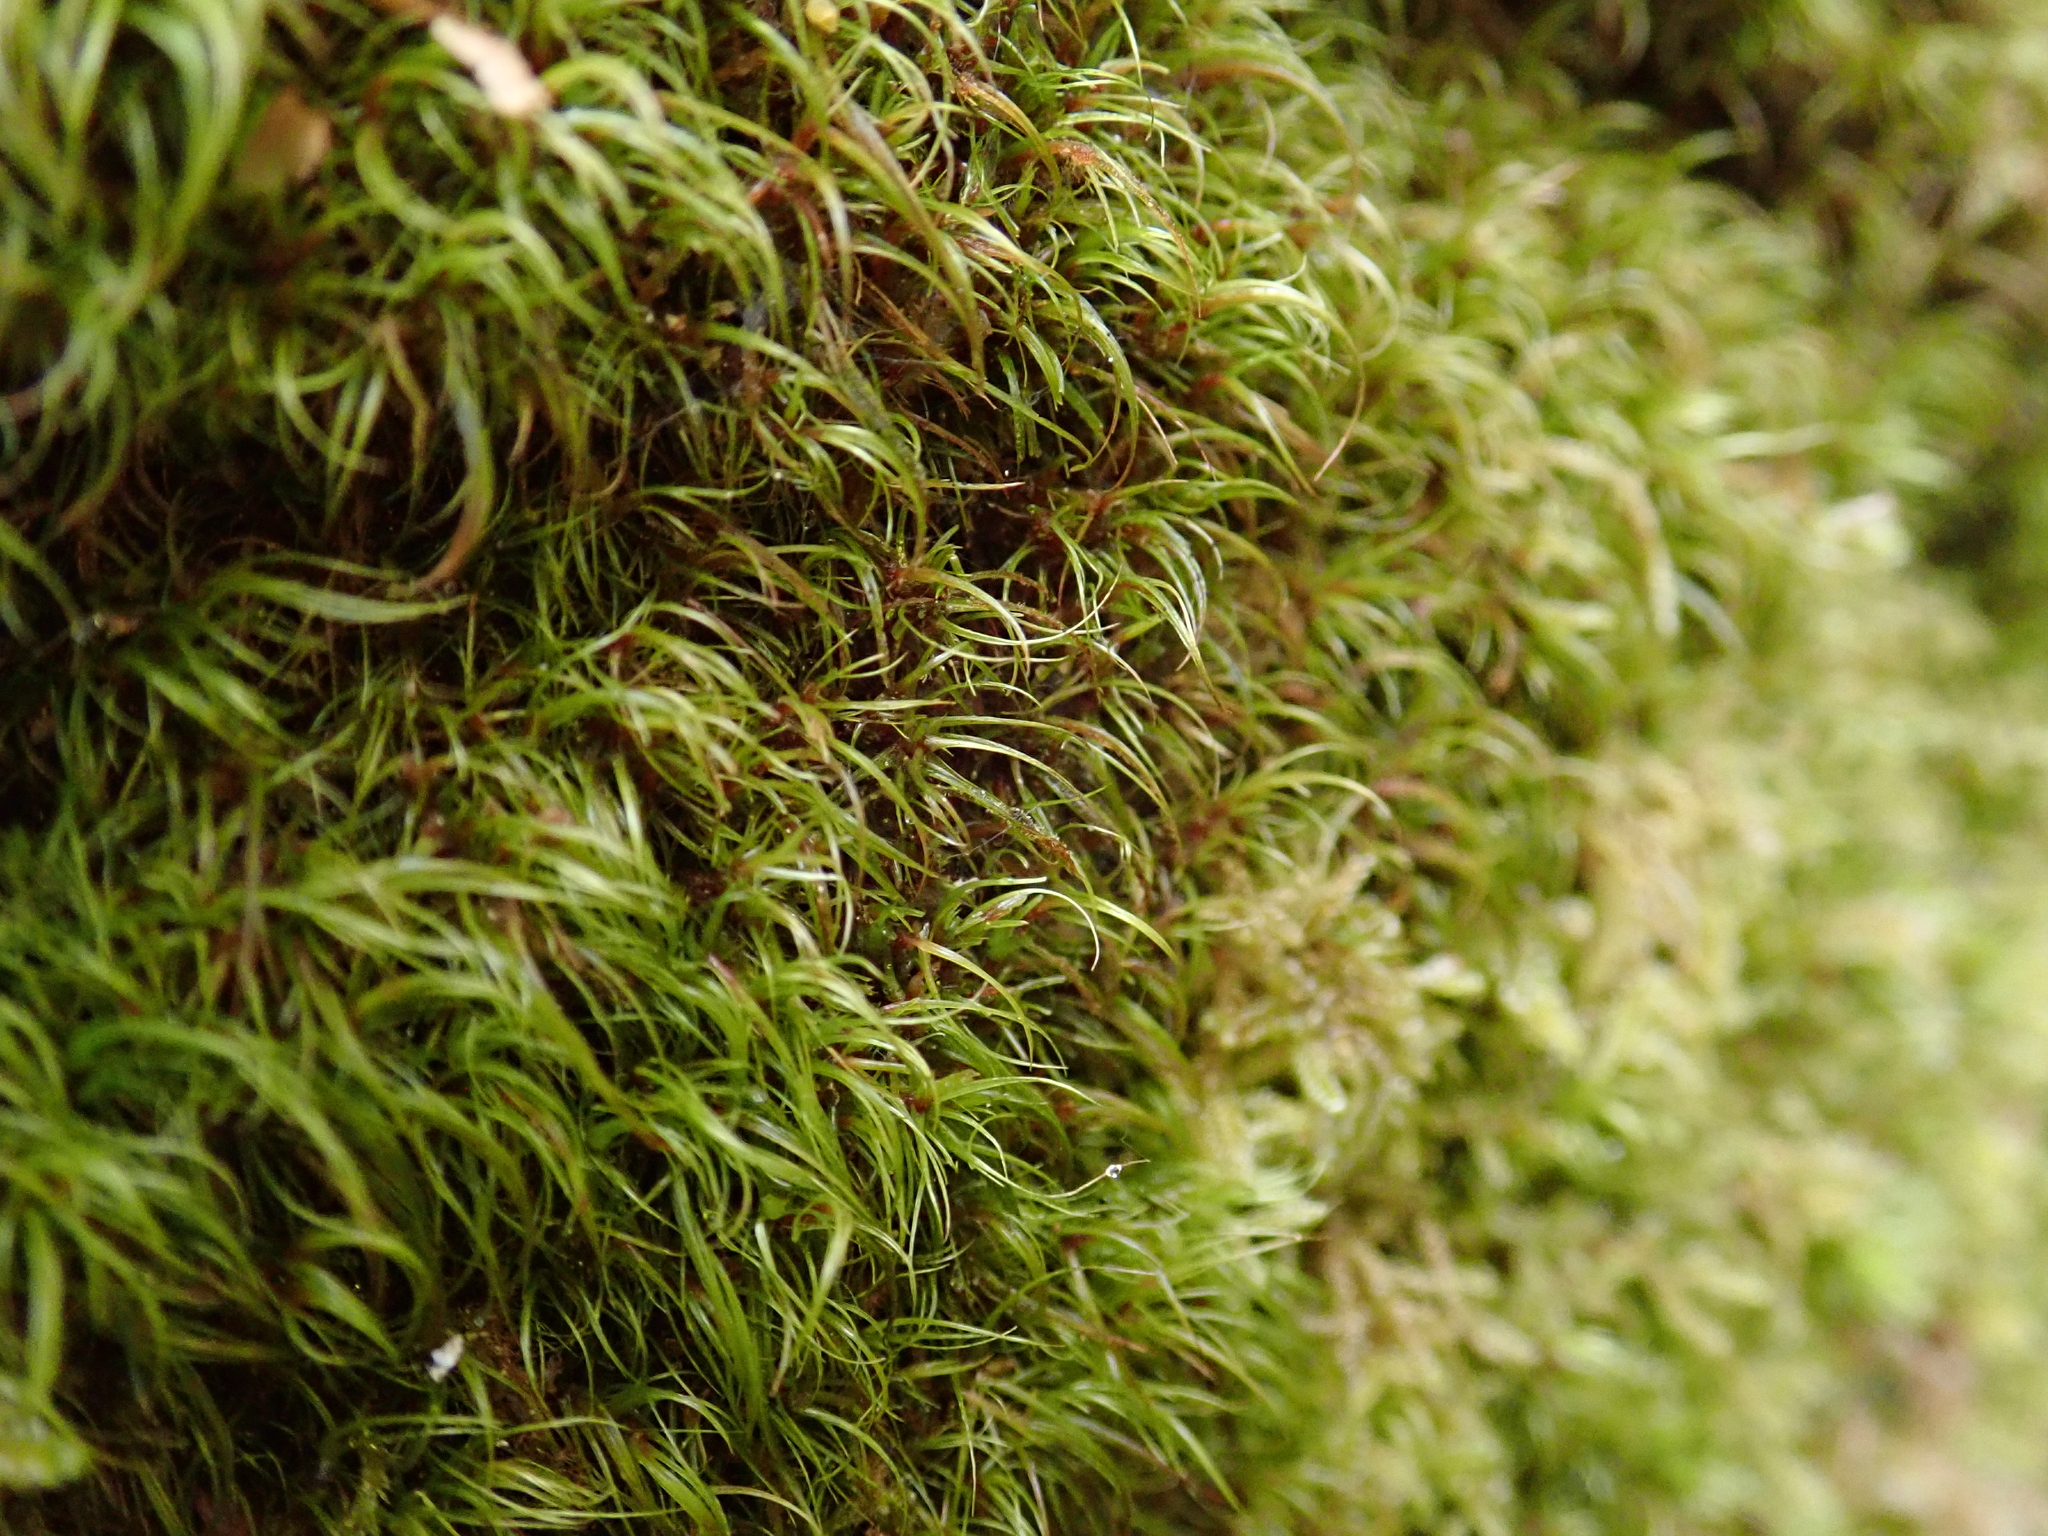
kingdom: Plantae
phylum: Bryophyta
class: Bryopsida
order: Dicranales
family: Leucobryaceae
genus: Dicranodontium
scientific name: Dicranodontium denudatum
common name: Beaked bow moss
